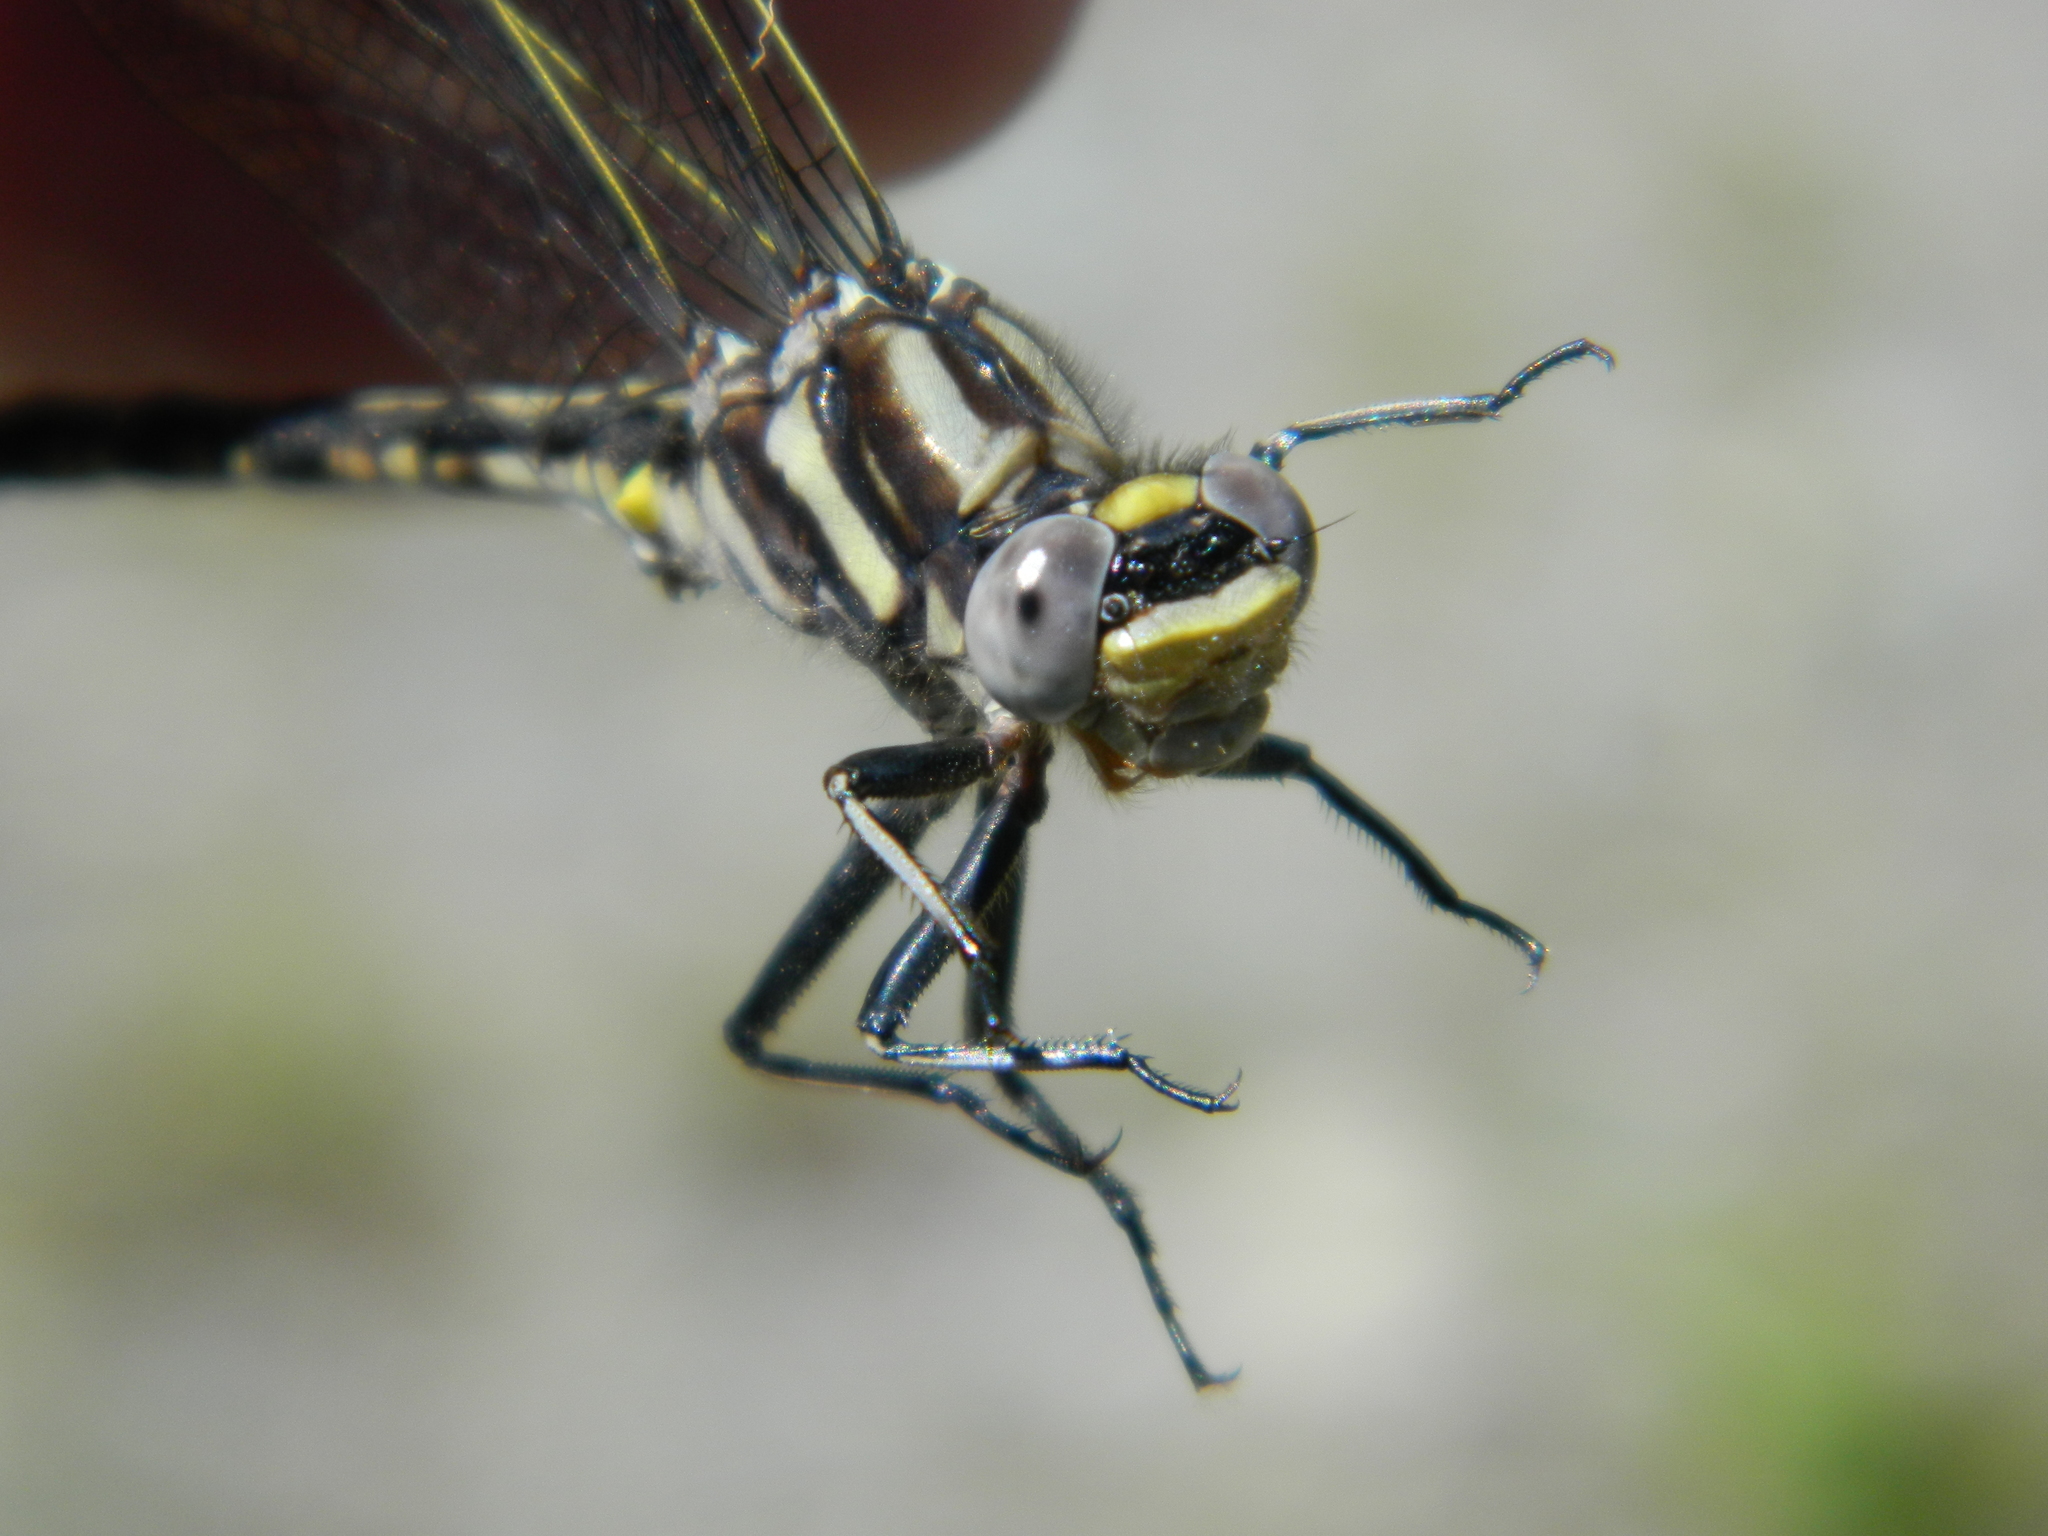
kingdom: Animalia
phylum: Arthropoda
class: Insecta
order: Odonata
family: Gomphidae
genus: Phanogomphus
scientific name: Phanogomphus spicatus
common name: Dusky clubtail
